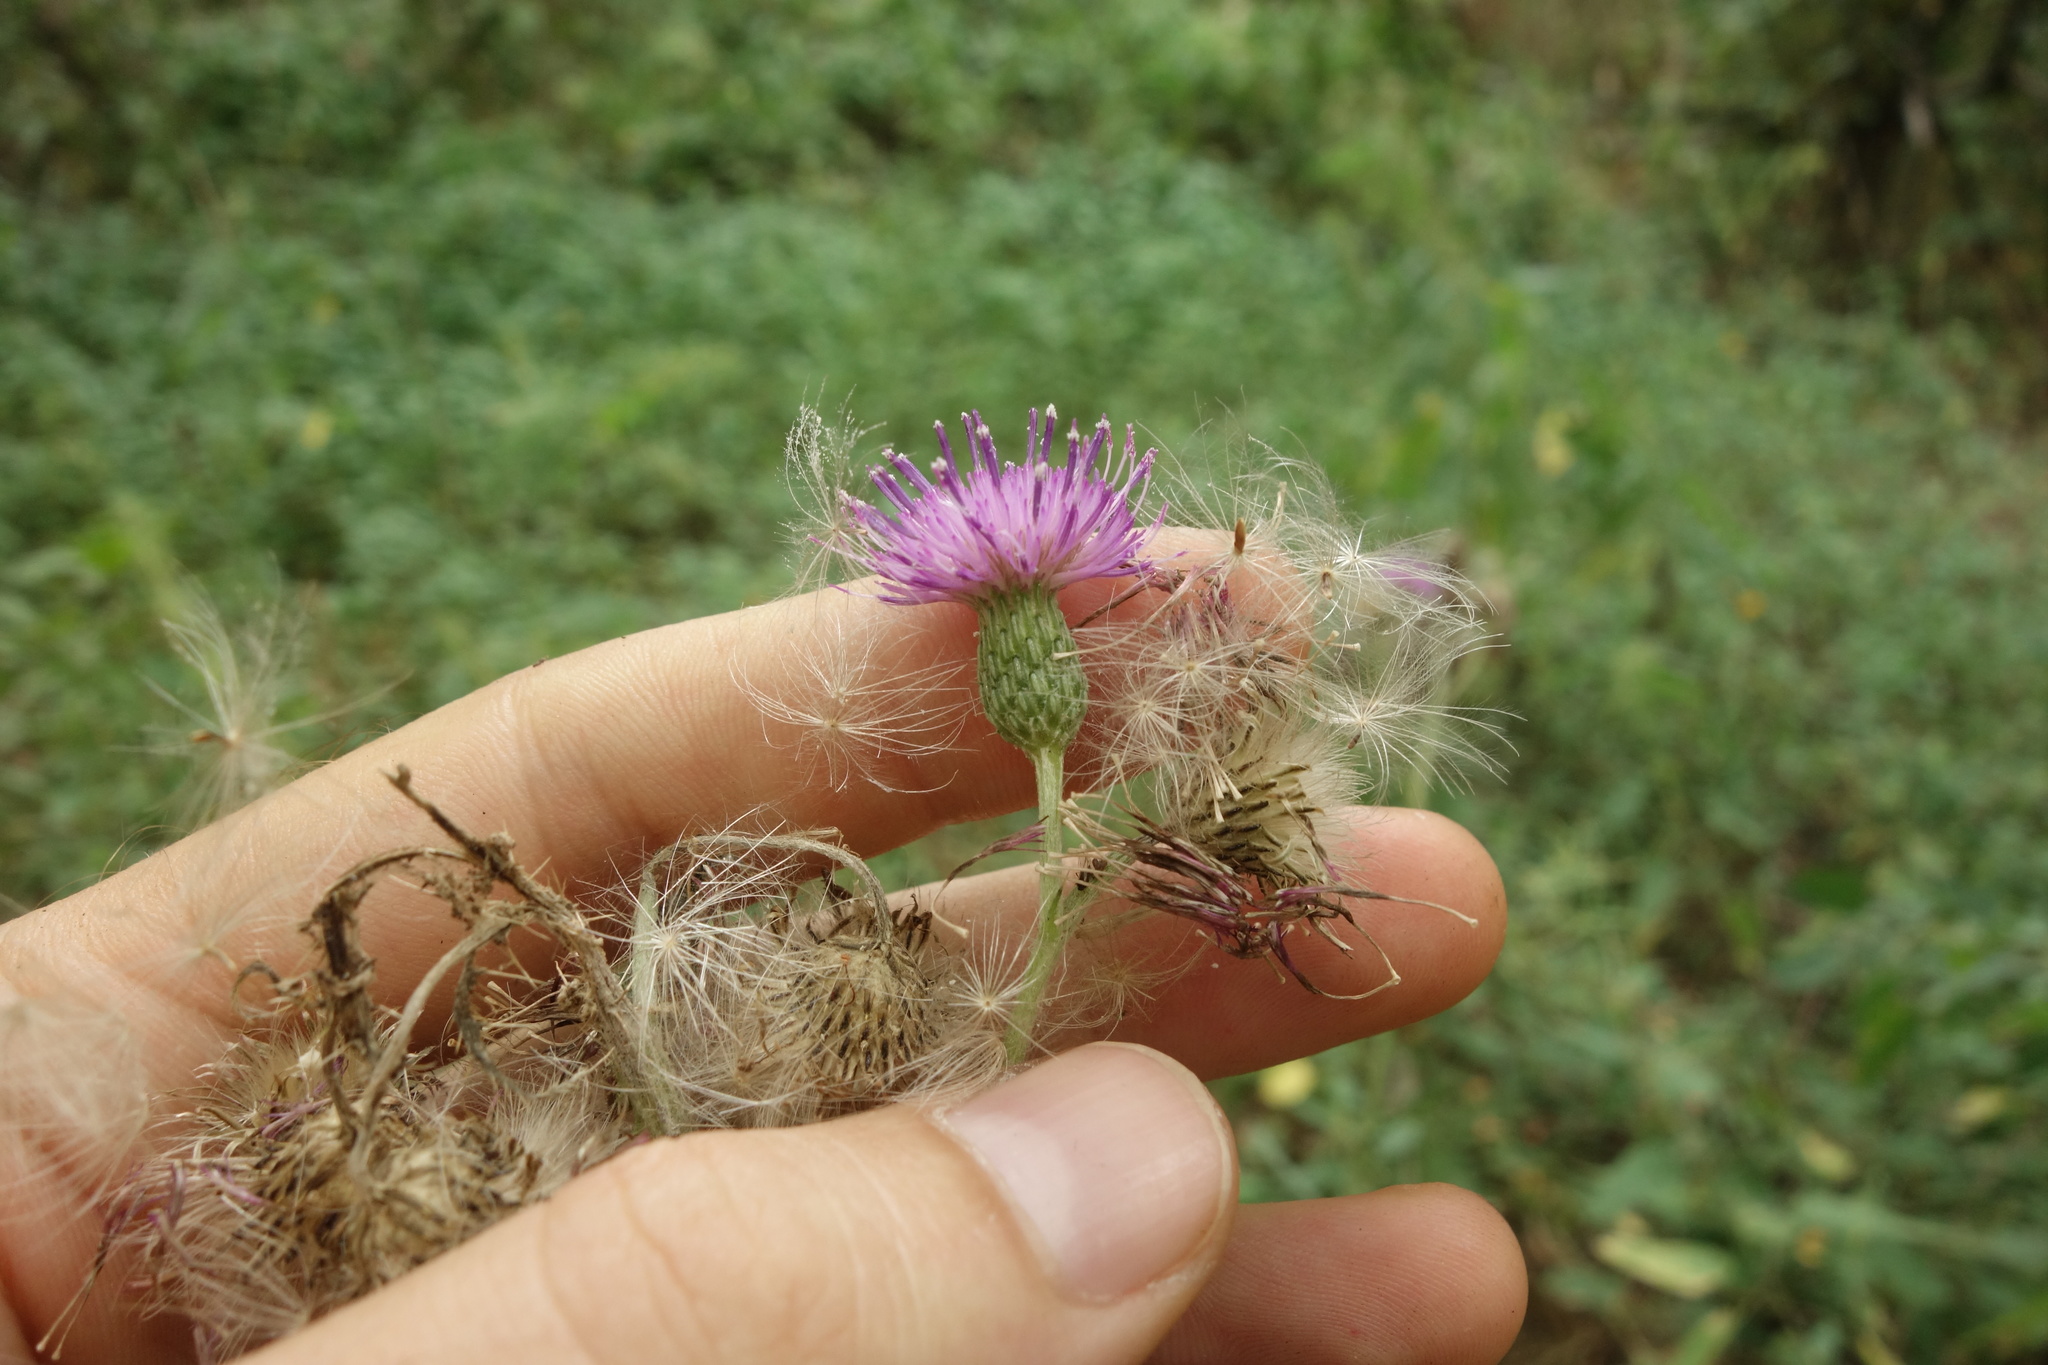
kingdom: Plantae
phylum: Tracheophyta
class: Magnoliopsida
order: Asterales
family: Asteraceae
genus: Cirsium
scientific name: Cirsium palustre
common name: Marsh thistle
